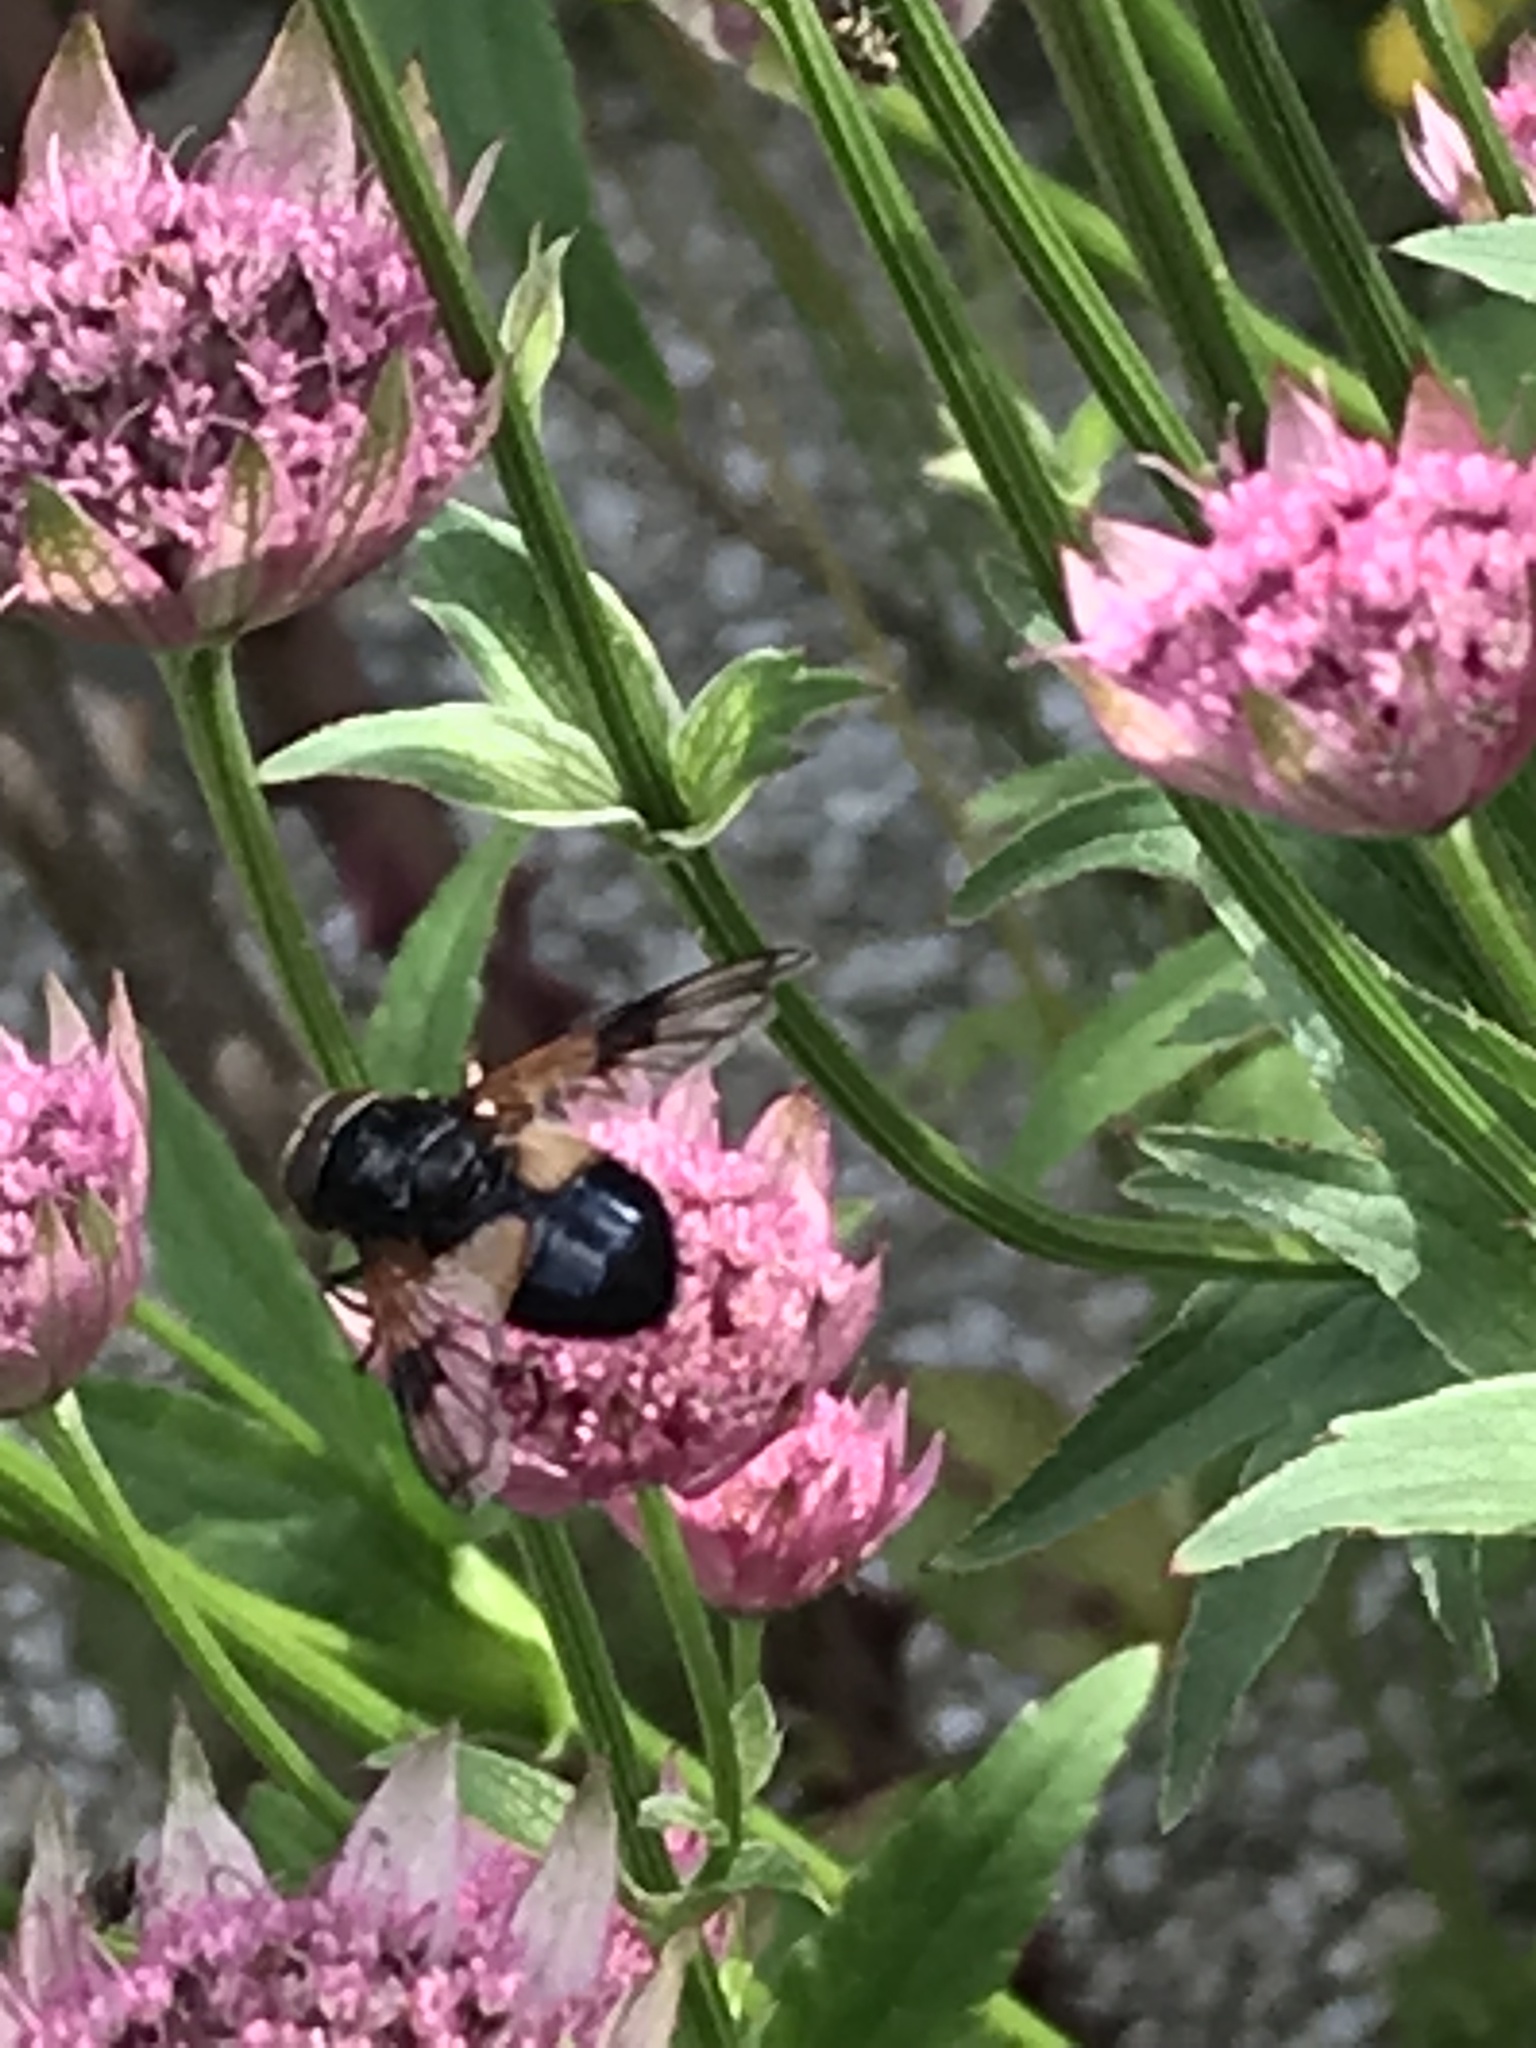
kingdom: Animalia
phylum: Arthropoda
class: Insecta
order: Diptera
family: Syrphidae
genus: Volucella
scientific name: Volucella pellucens
